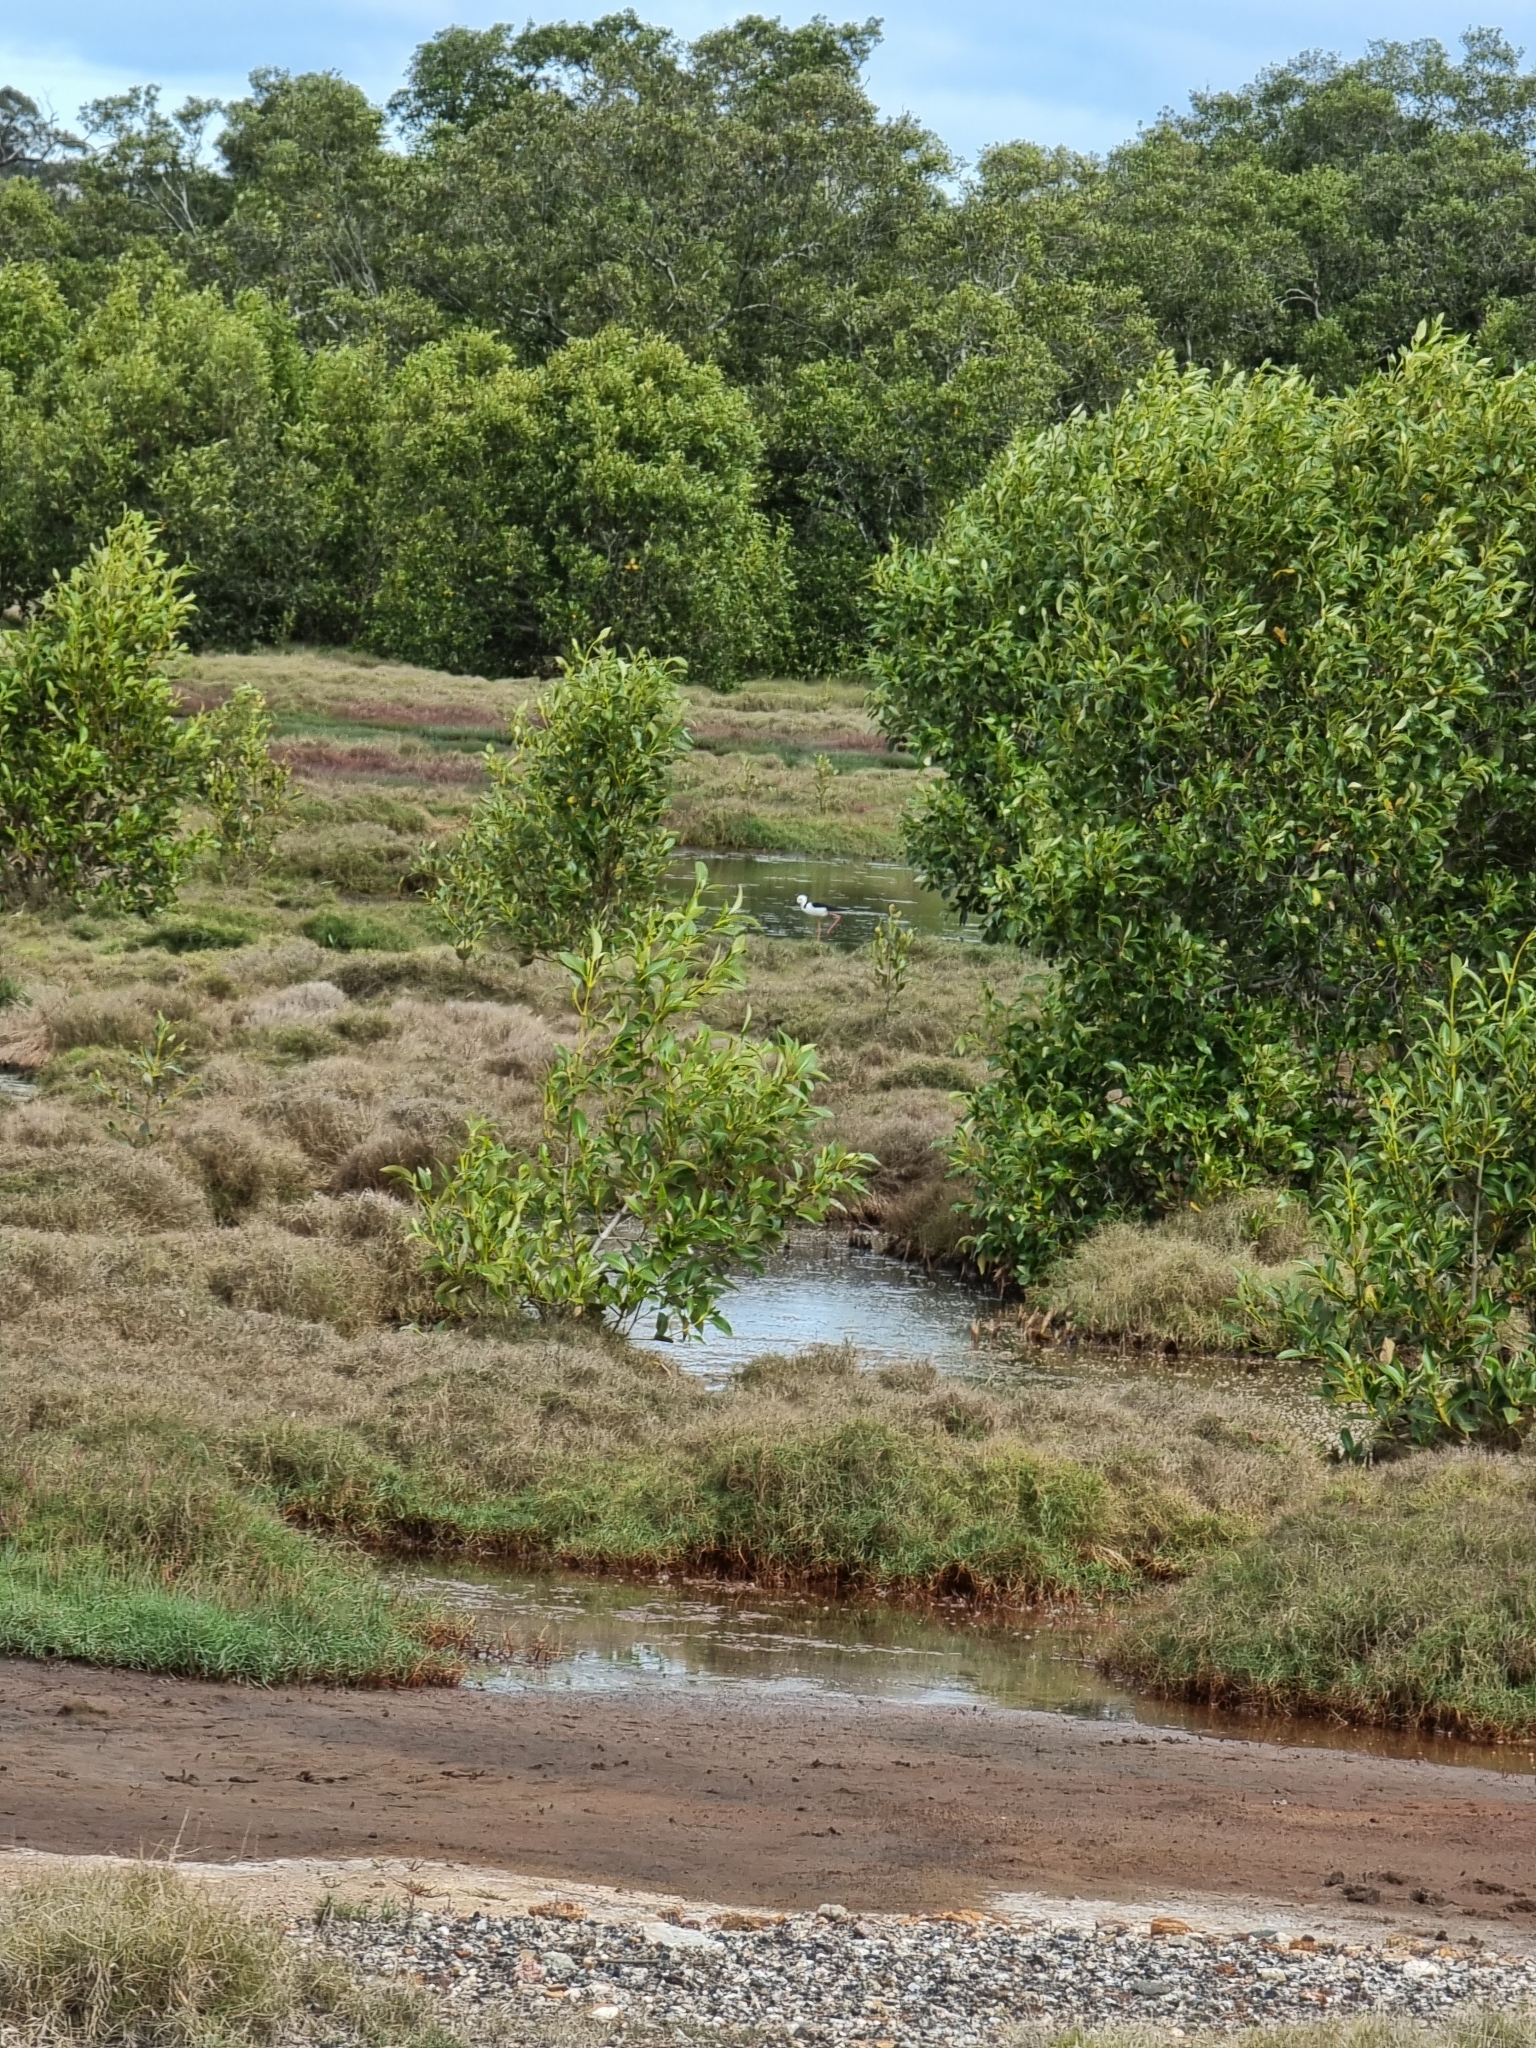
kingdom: Animalia
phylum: Chordata
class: Aves
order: Charadriiformes
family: Recurvirostridae
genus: Himantopus
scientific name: Himantopus leucocephalus
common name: White-headed stilt
